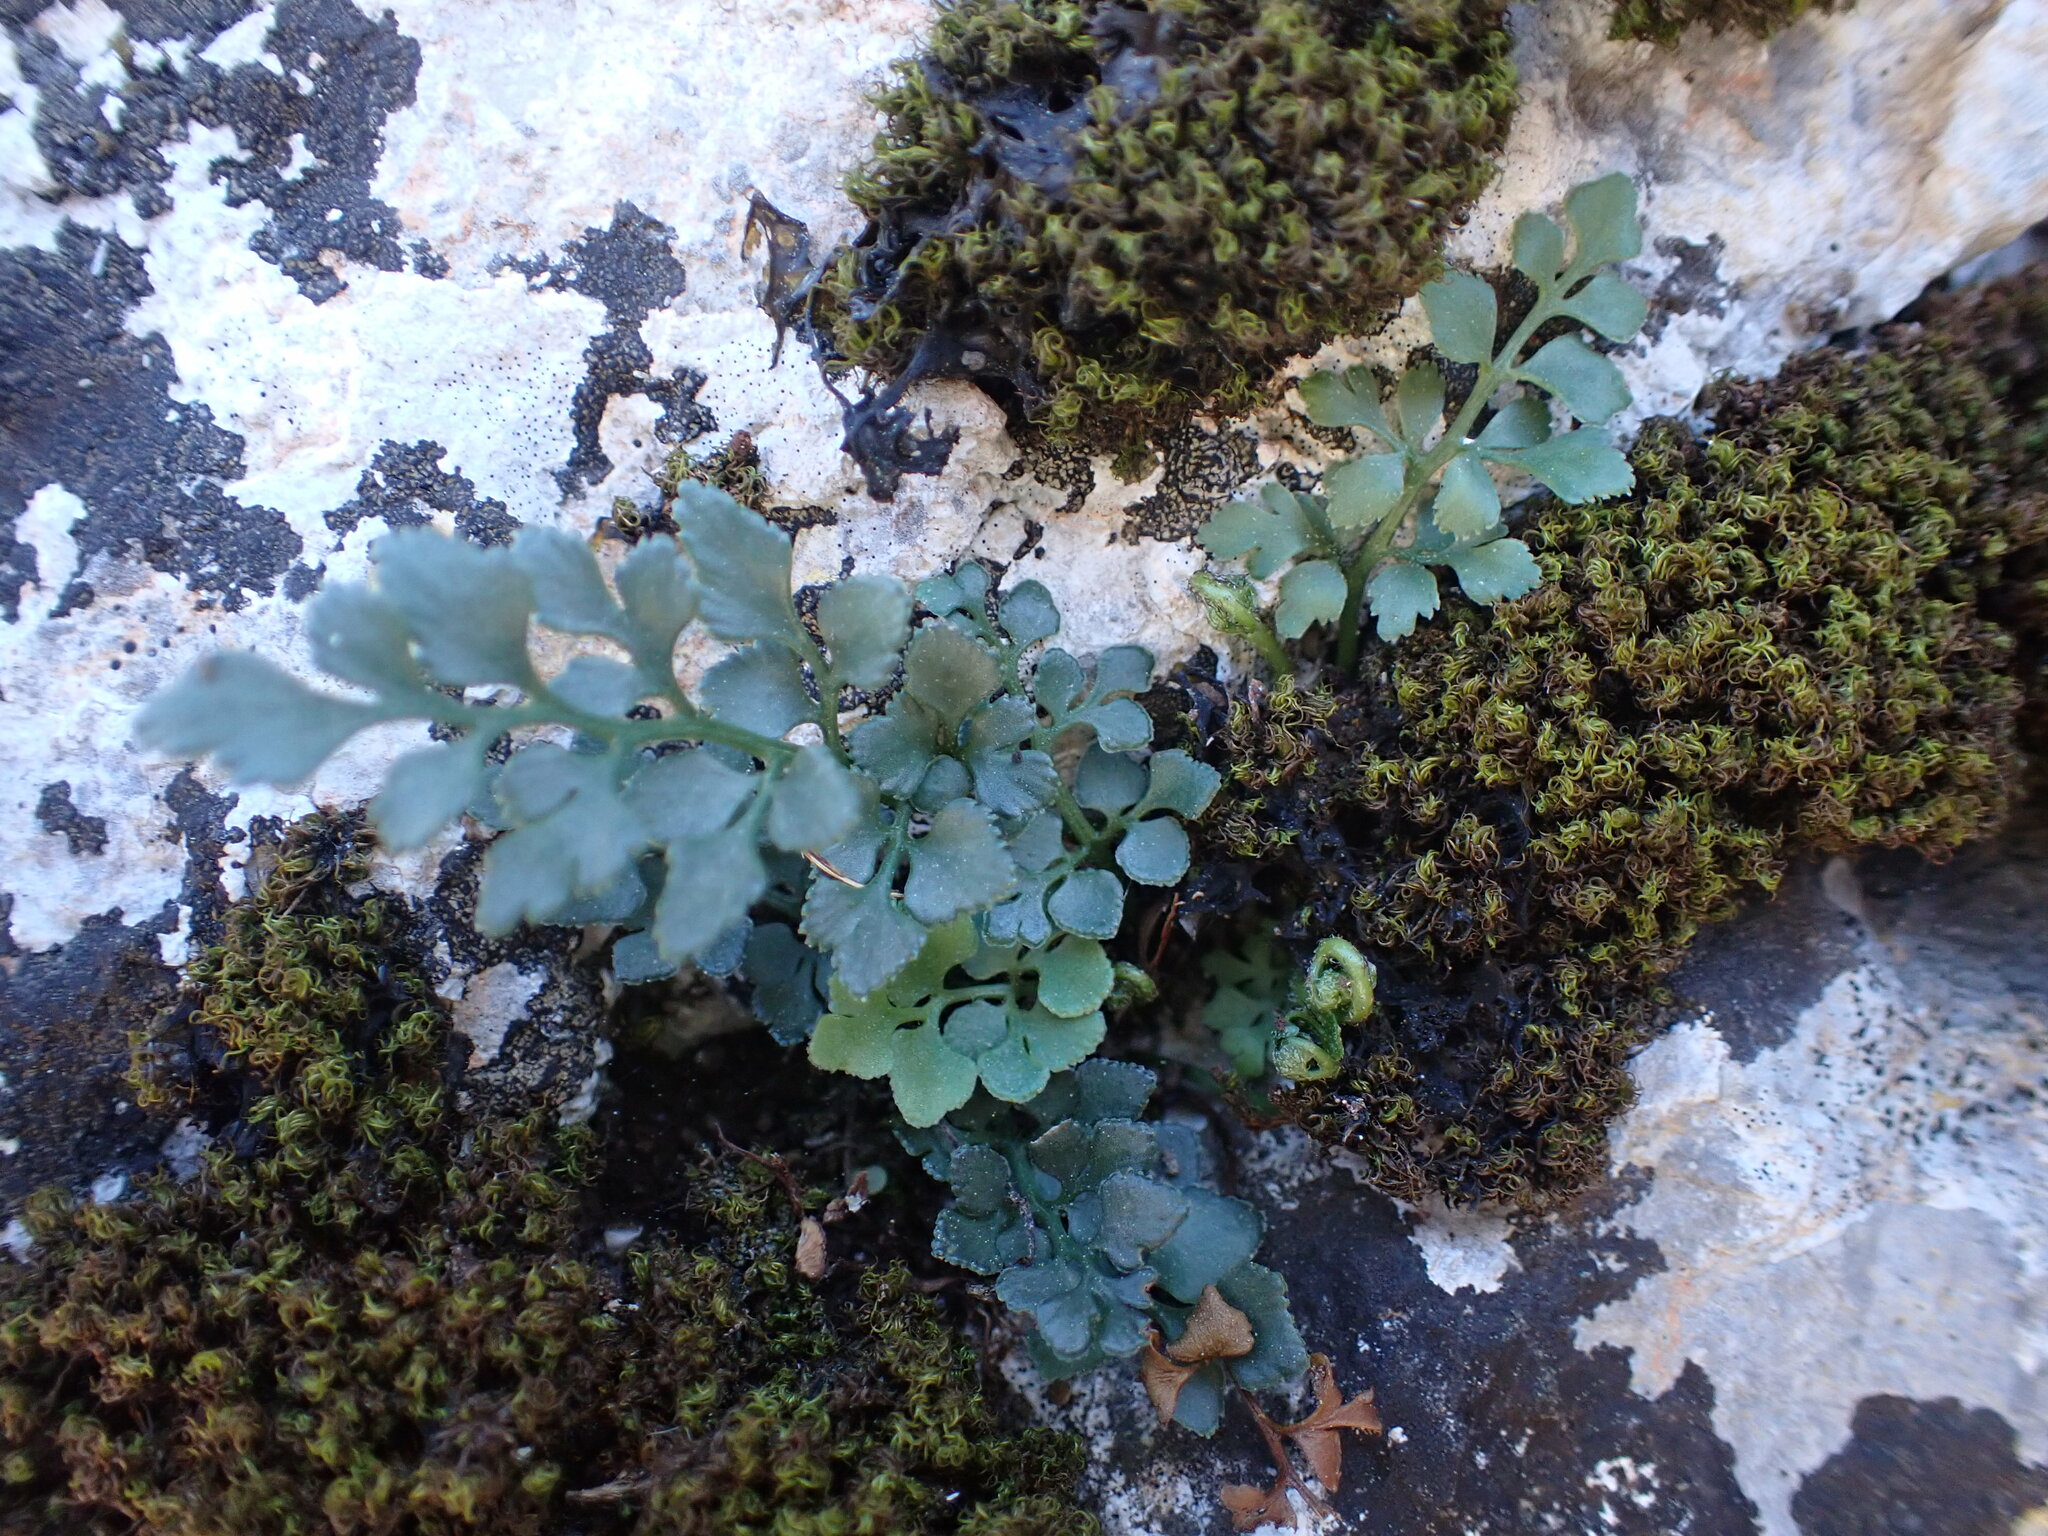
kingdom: Plantae
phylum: Tracheophyta
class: Polypodiopsida
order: Polypodiales
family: Aspleniaceae
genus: Asplenium
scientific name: Asplenium ruta-muraria
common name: Wall-rue
